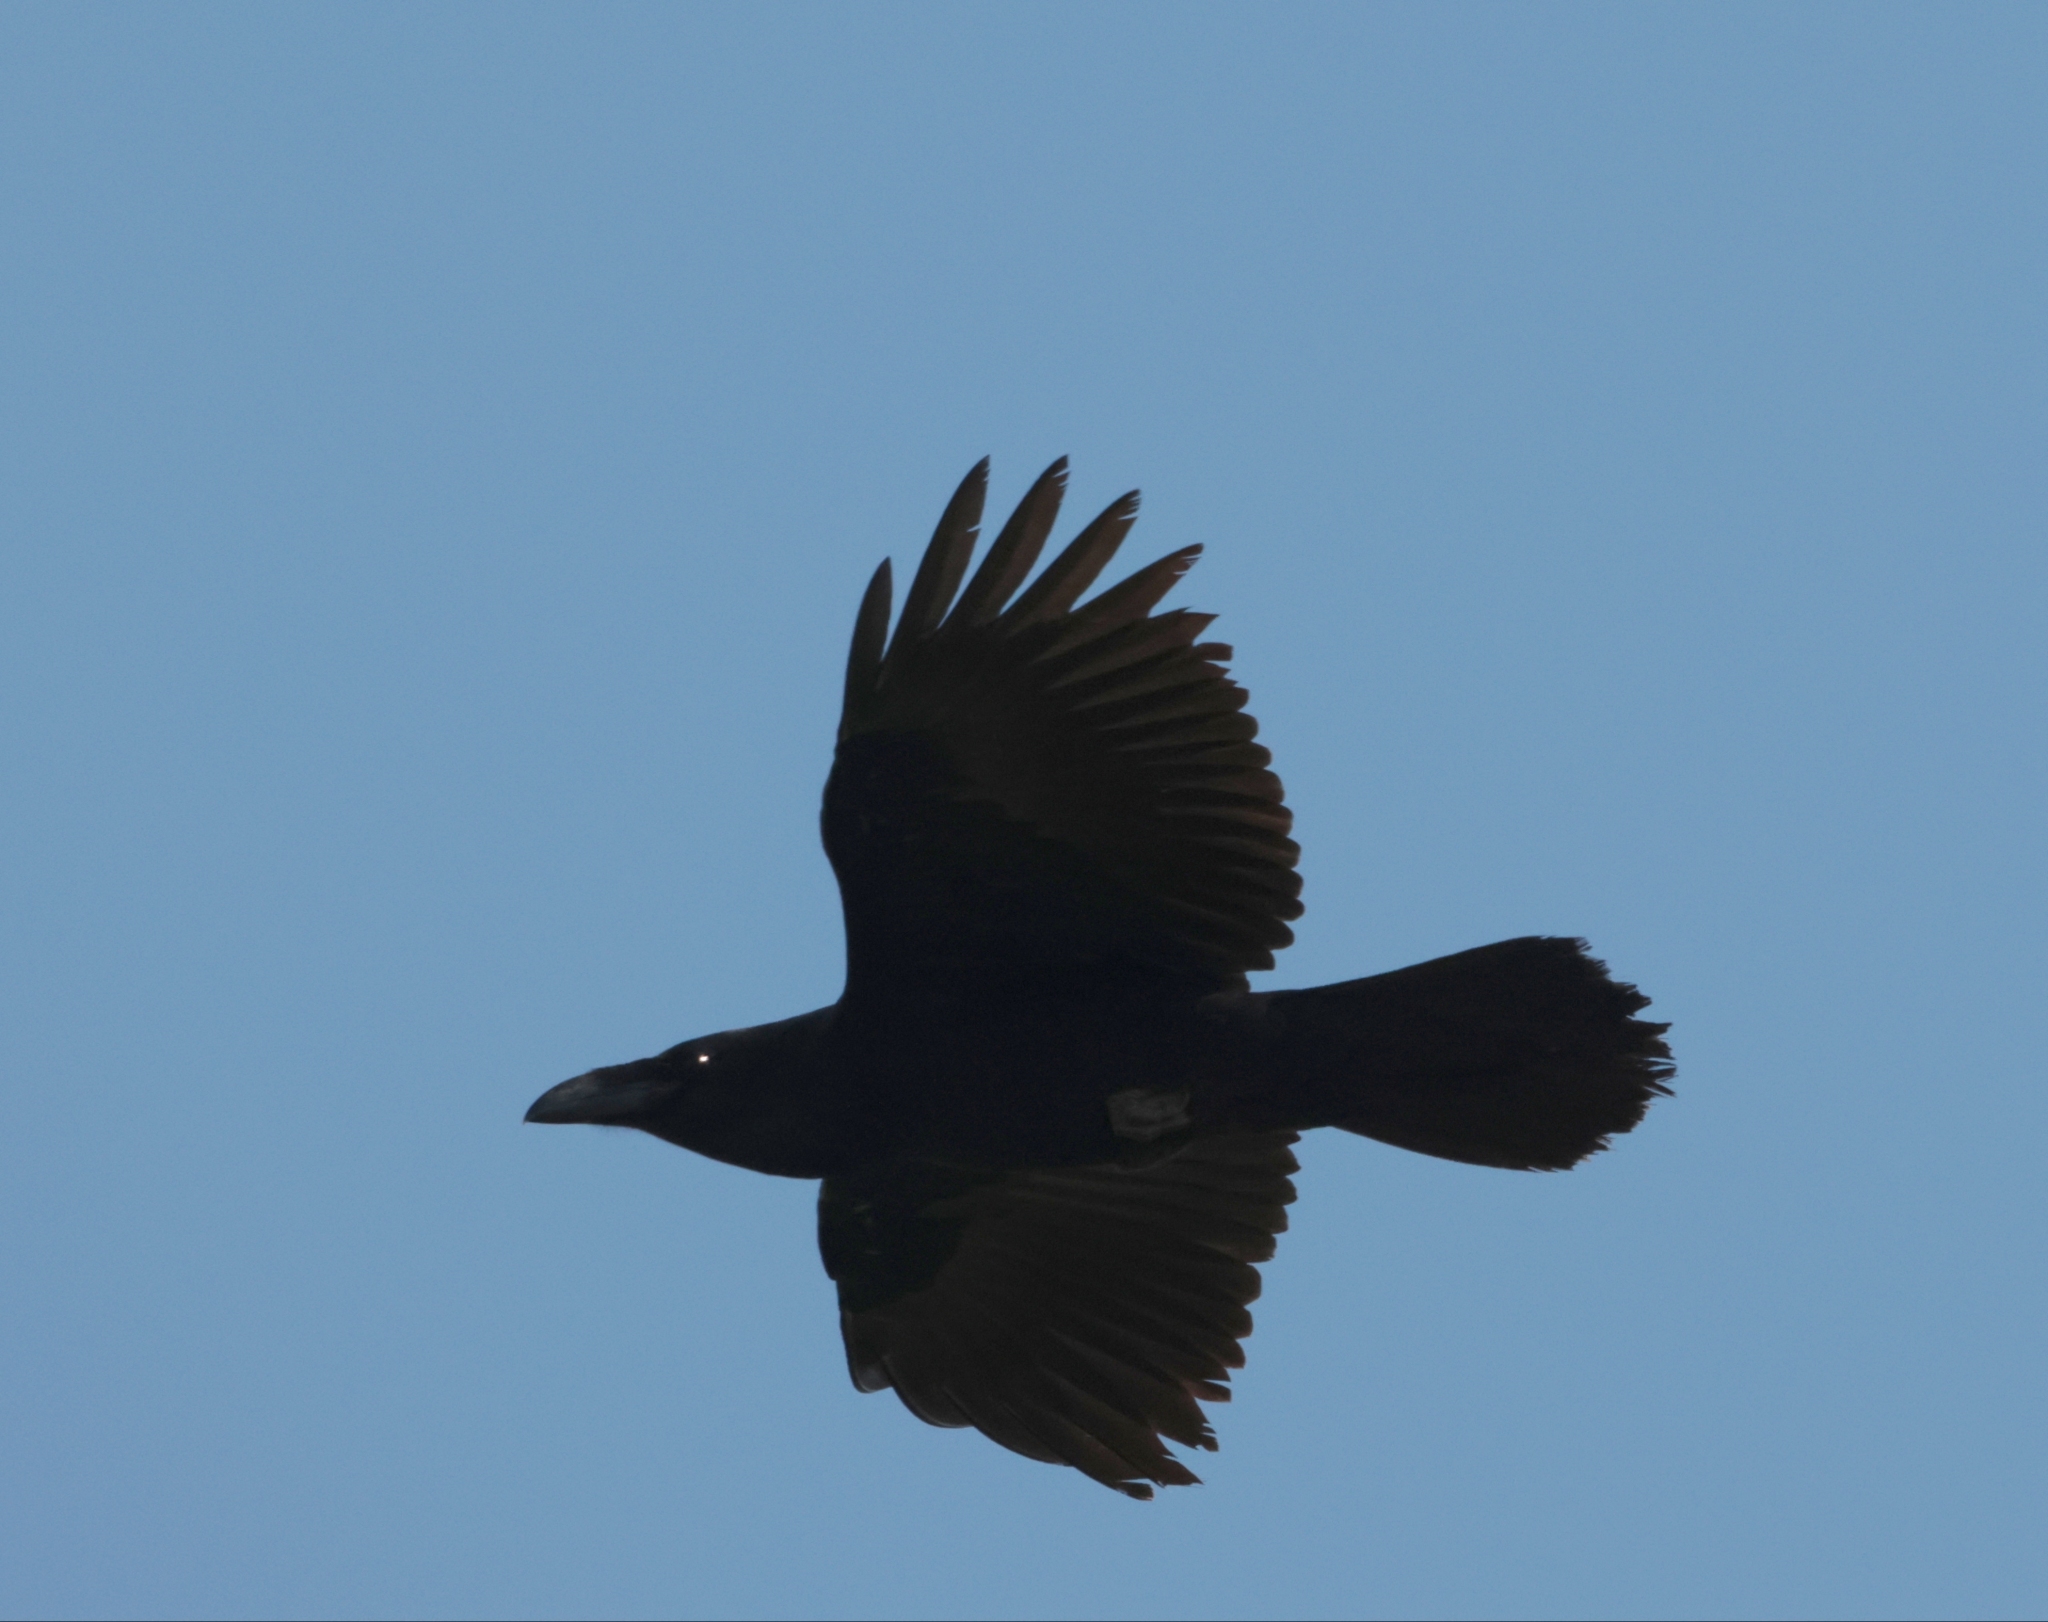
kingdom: Animalia
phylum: Chordata
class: Aves
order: Passeriformes
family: Corvidae
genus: Corvus
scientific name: Corvus corax
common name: Common raven
